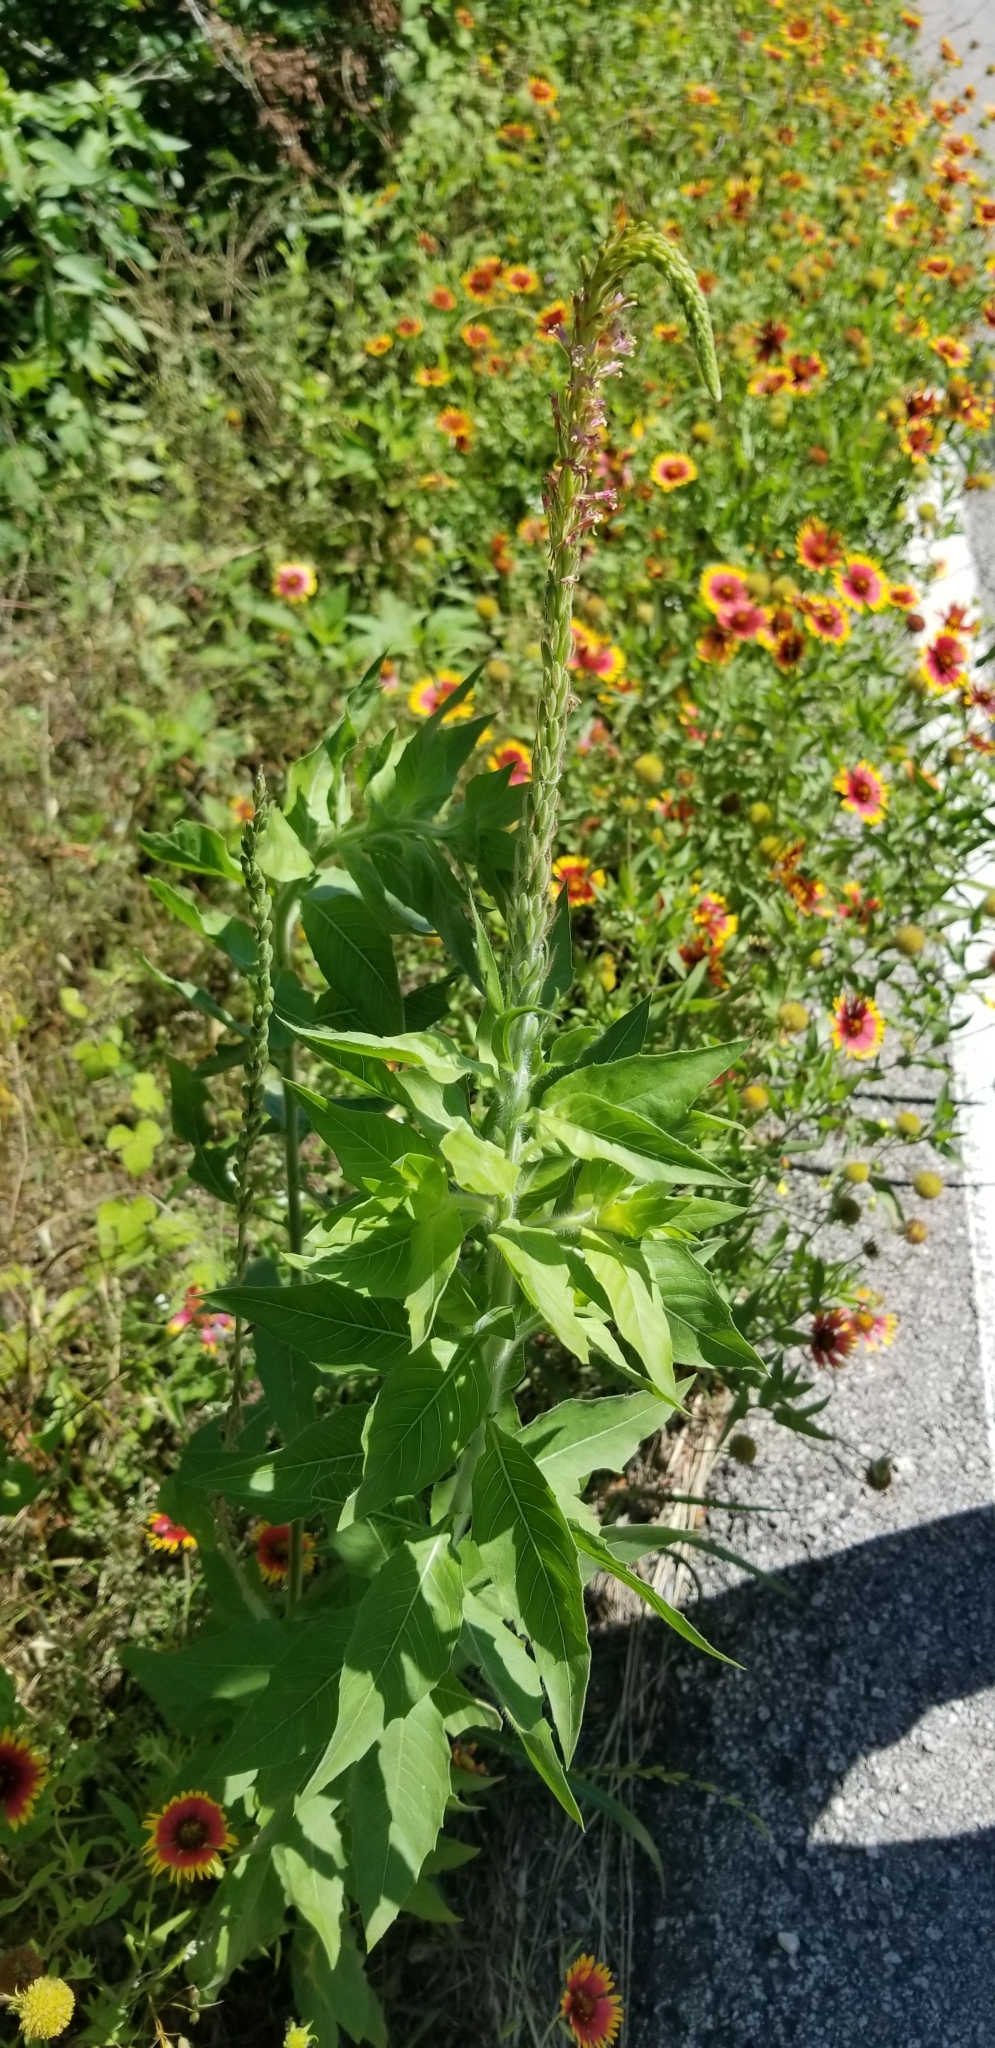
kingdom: Plantae
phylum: Tracheophyta
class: Magnoliopsida
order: Myrtales
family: Onagraceae
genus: Oenothera
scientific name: Oenothera curtiflora
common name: Velvetweed
